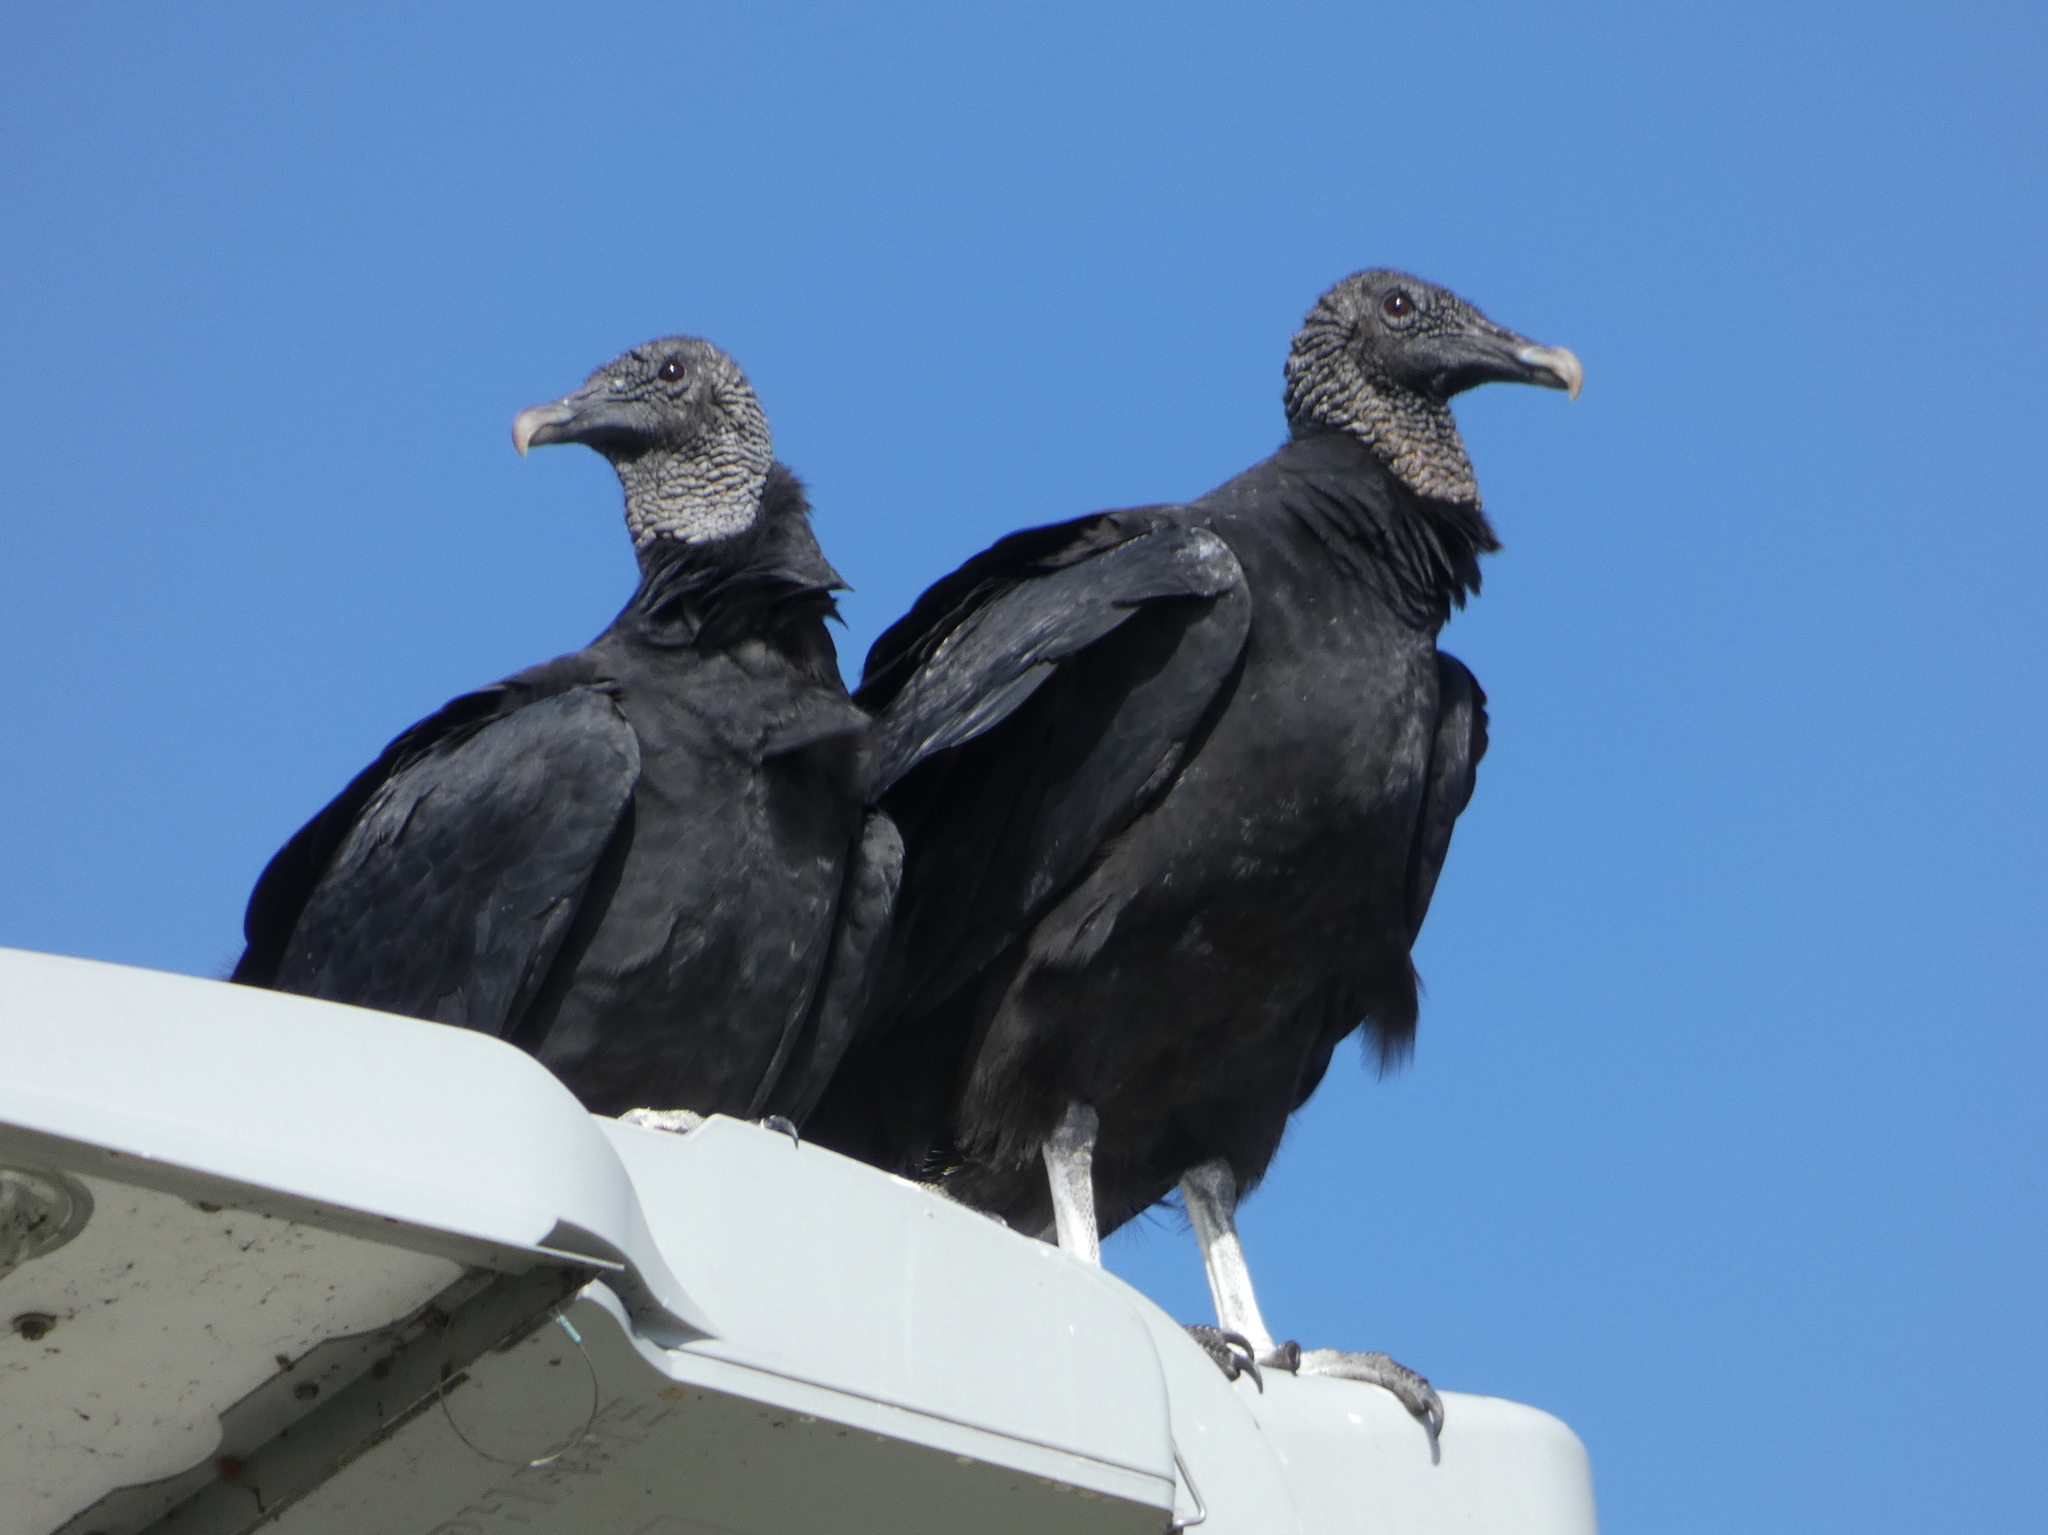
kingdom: Animalia
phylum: Chordata
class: Aves
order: Accipitriformes
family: Cathartidae
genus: Coragyps
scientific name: Coragyps atratus
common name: Black vulture
